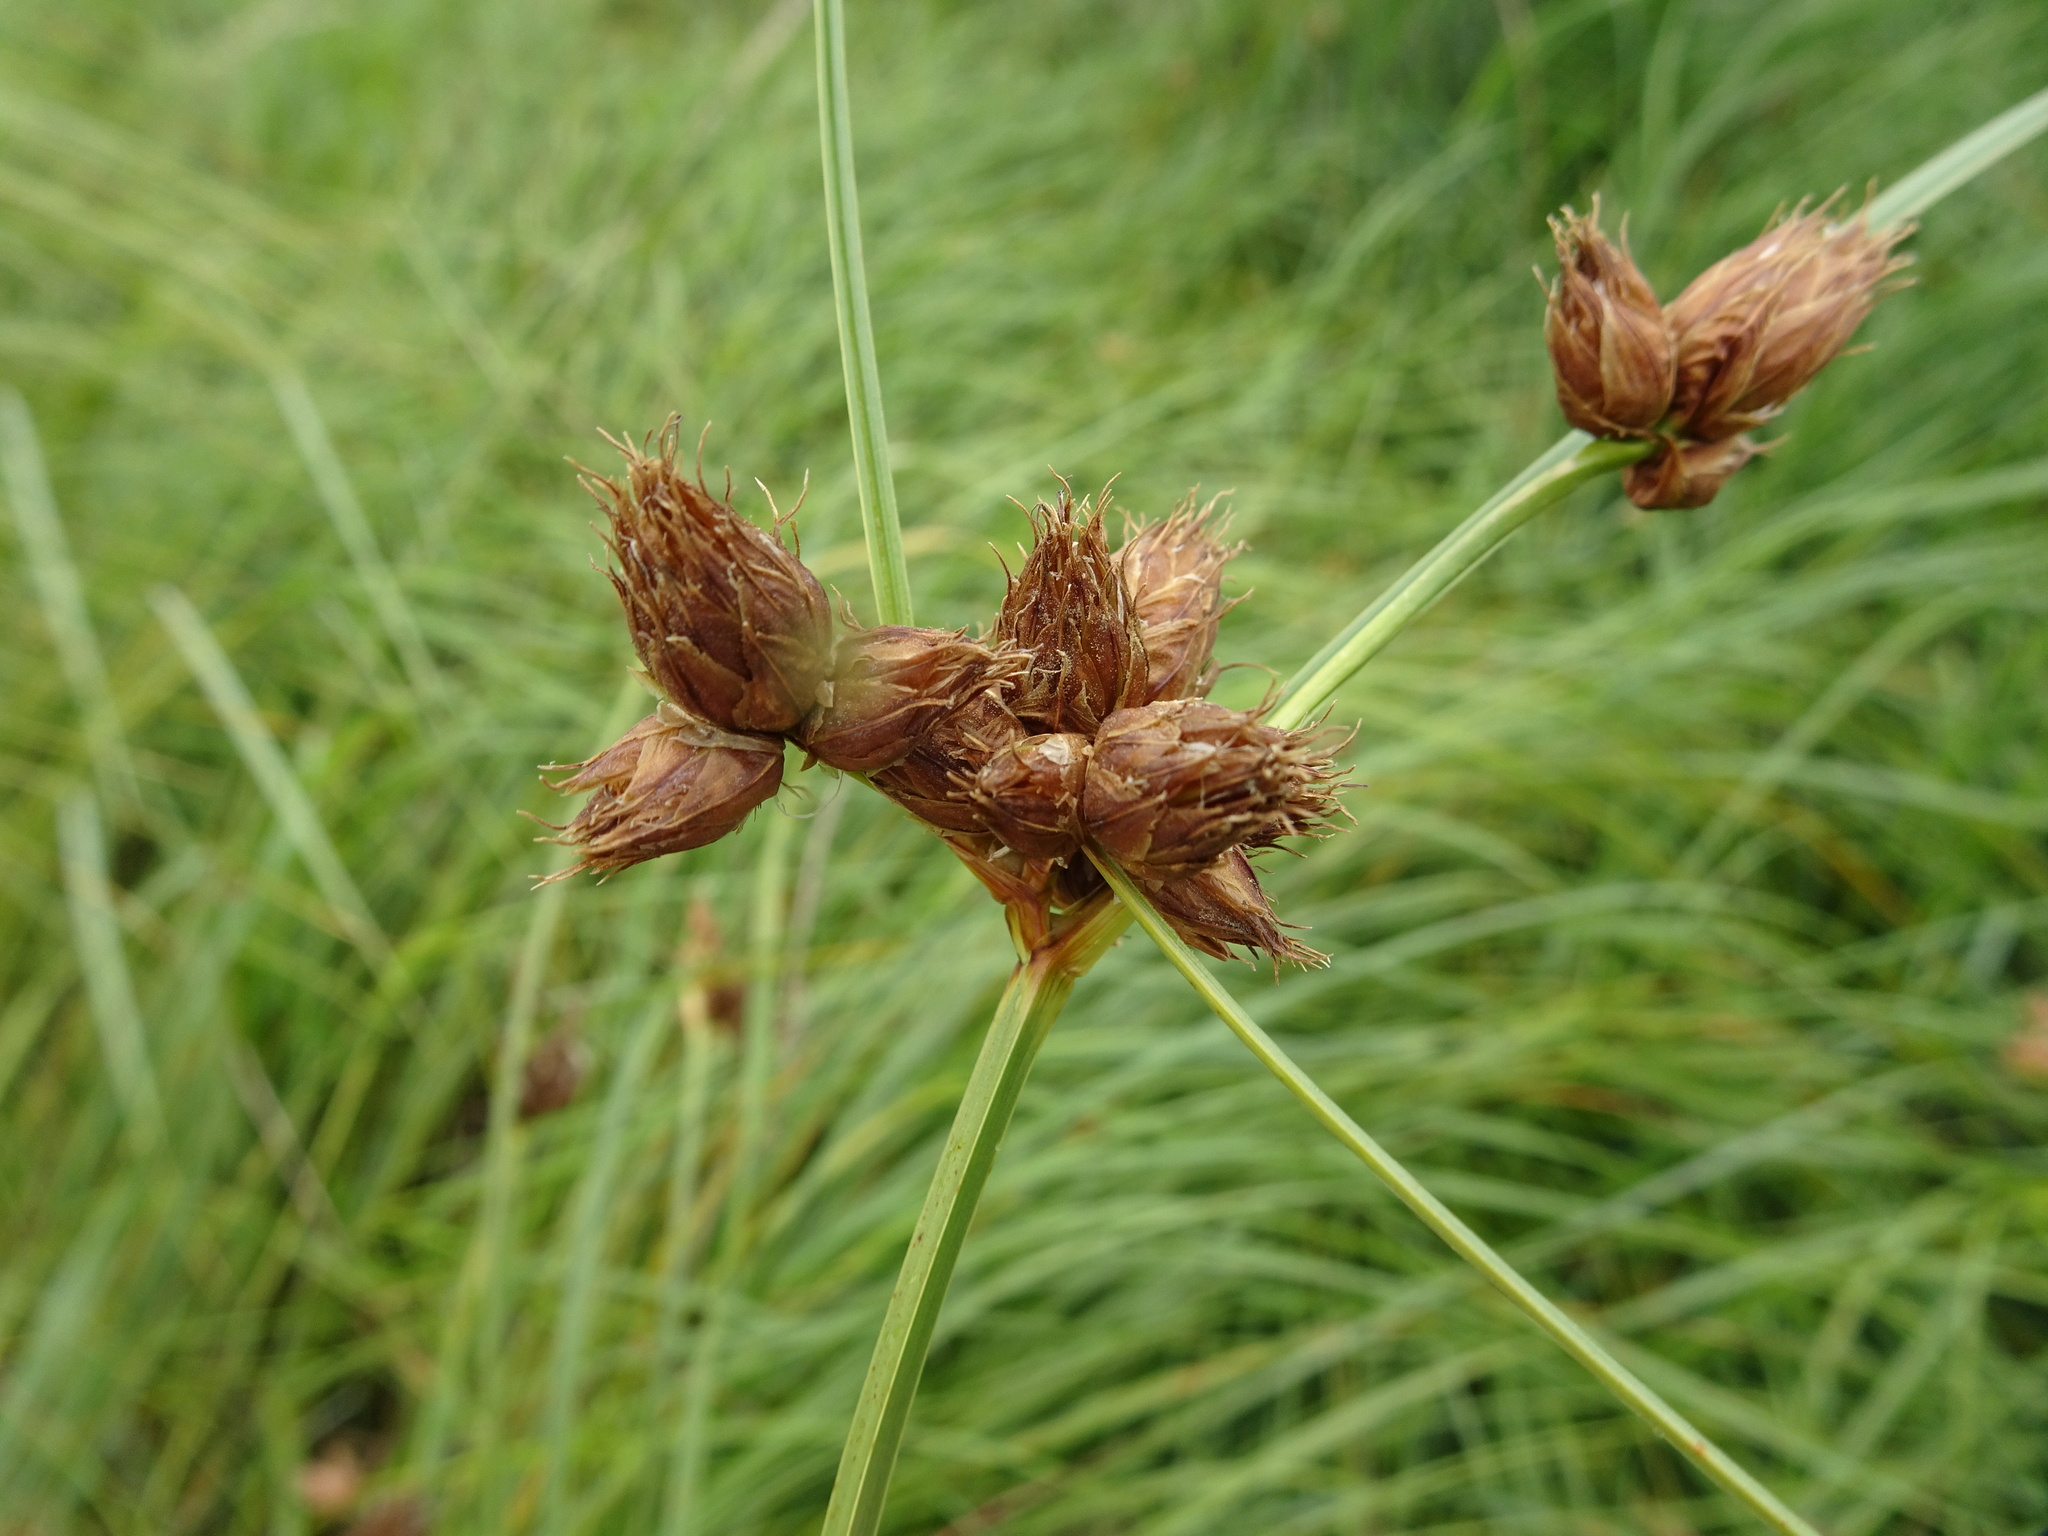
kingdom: Plantae
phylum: Tracheophyta
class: Liliopsida
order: Poales
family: Cyperaceae
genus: Bolboschoenus
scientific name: Bolboschoenus maritimus
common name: Sea club-rush
